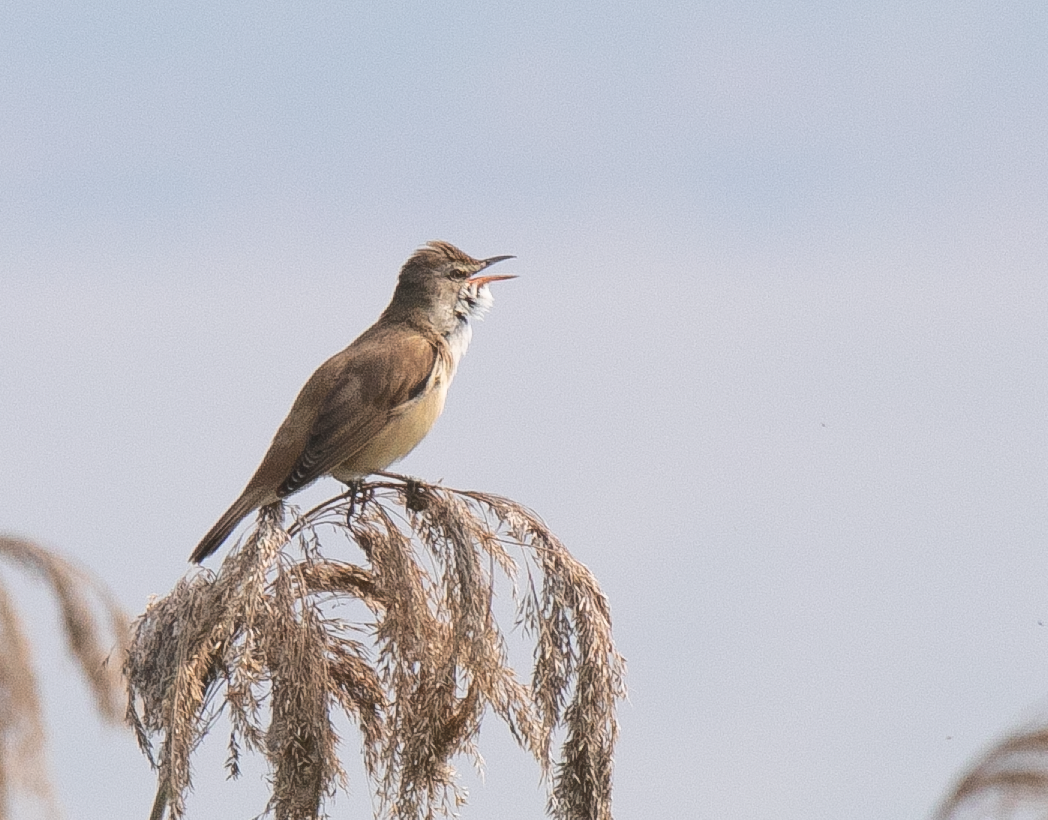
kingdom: Animalia
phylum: Chordata
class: Aves
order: Passeriformes
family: Acrocephalidae
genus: Acrocephalus
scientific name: Acrocephalus arundinaceus
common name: Great reed warbler
